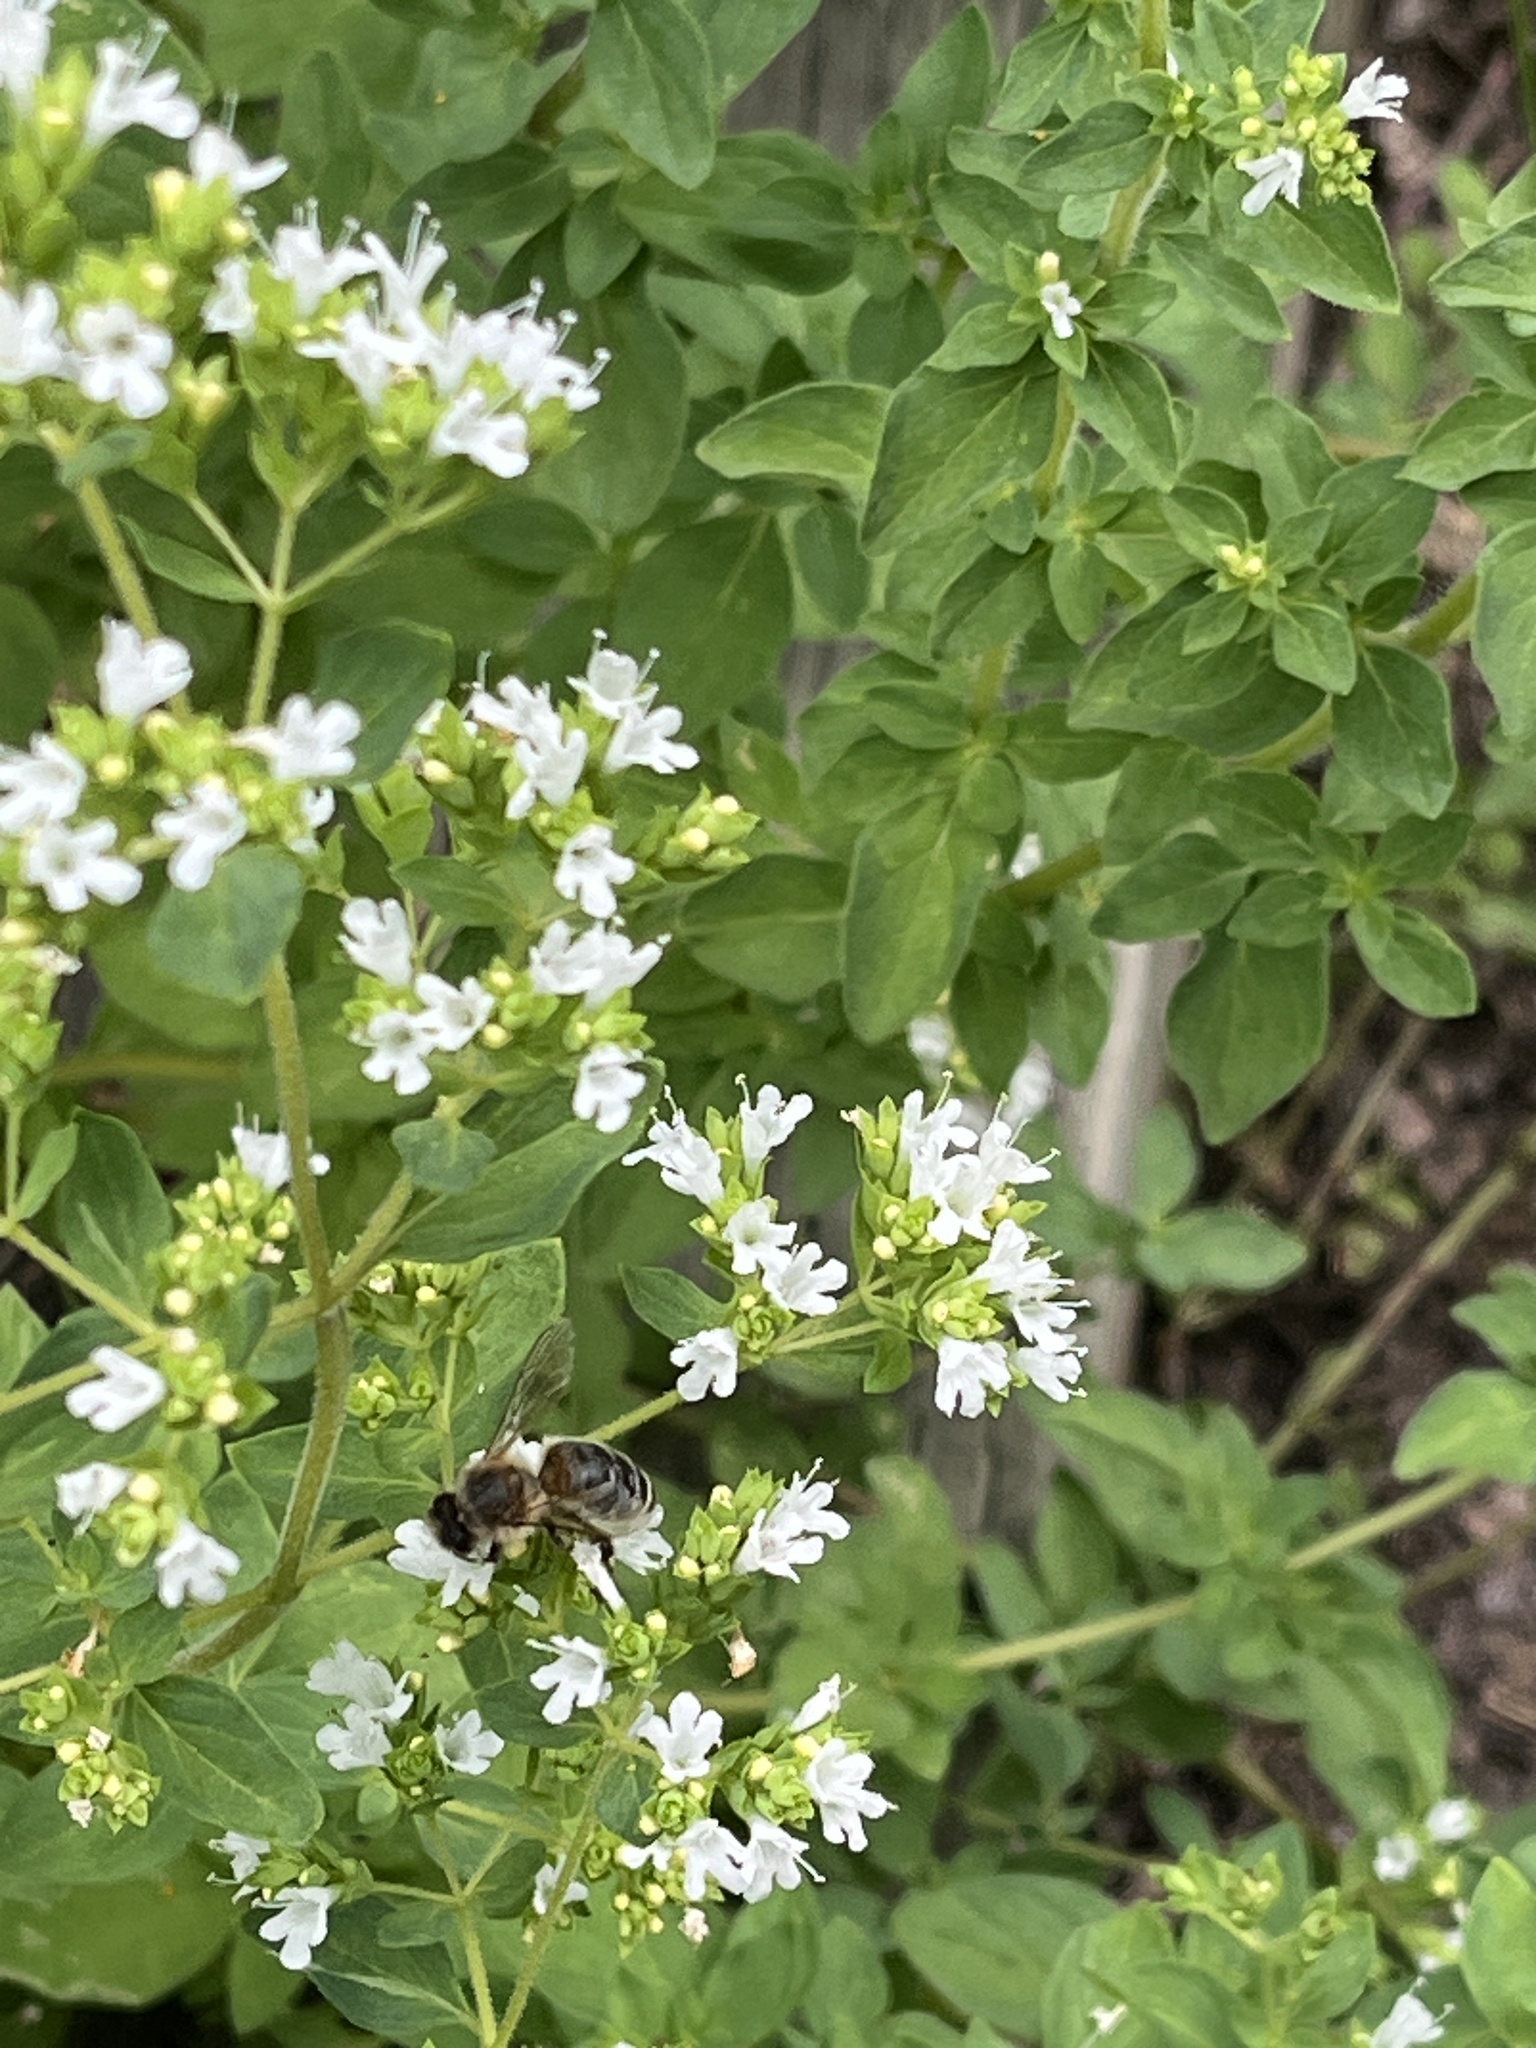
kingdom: Animalia
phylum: Arthropoda
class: Insecta
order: Hymenoptera
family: Apidae
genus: Apis
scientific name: Apis mellifera
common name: Honey bee
